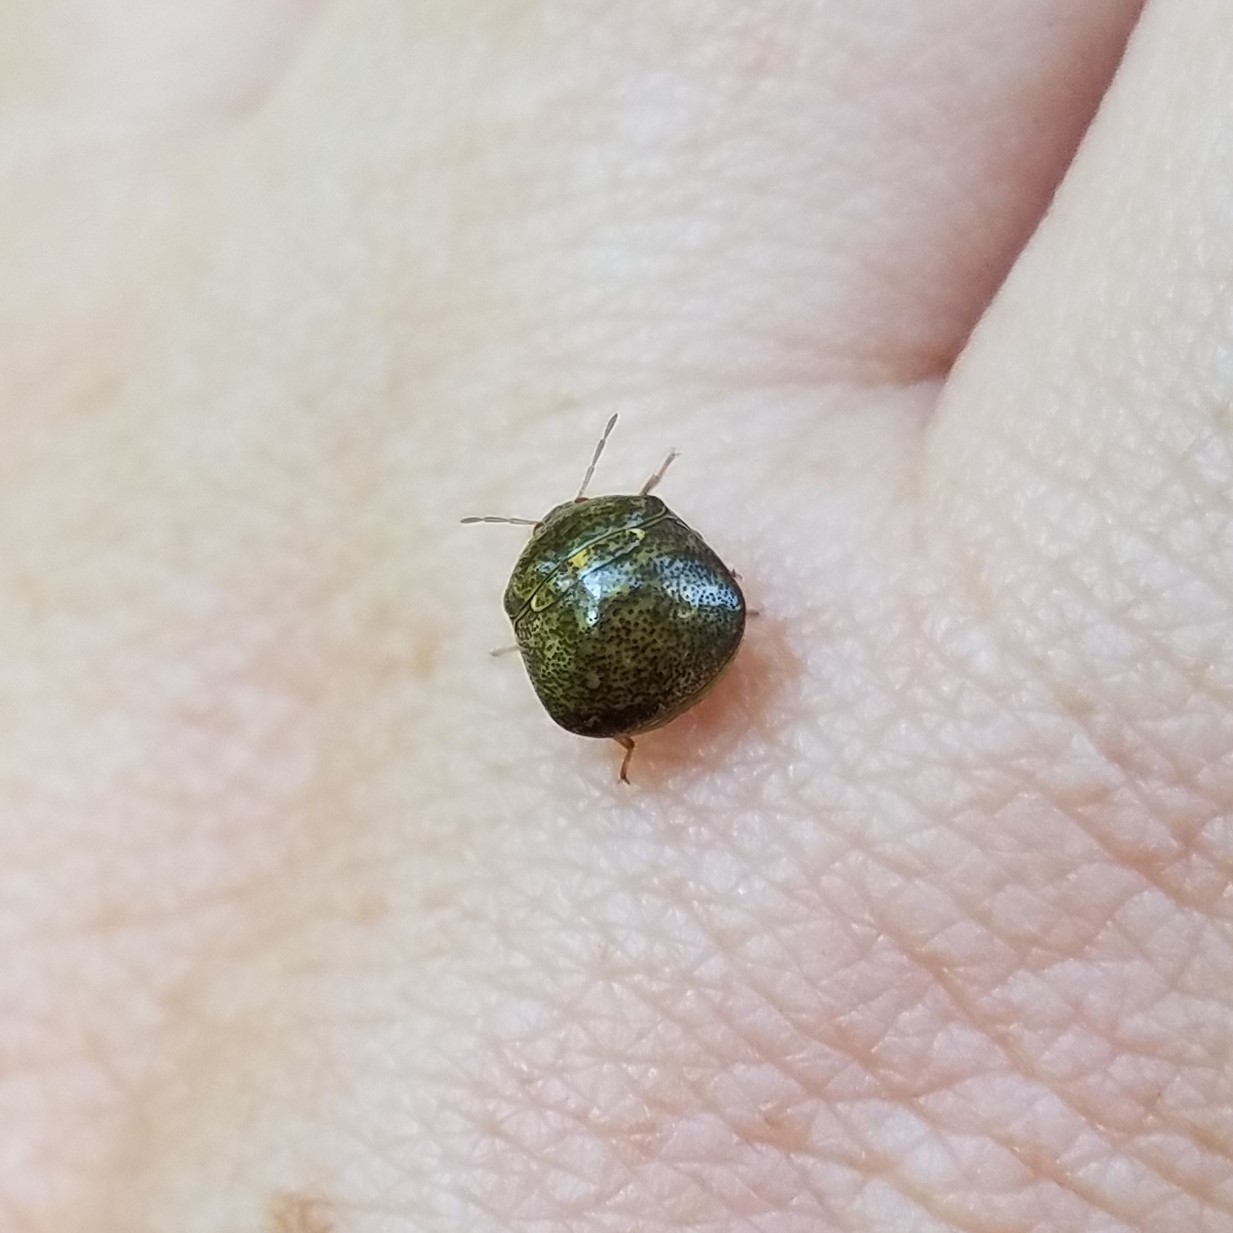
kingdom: Animalia
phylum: Arthropoda
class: Insecta
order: Hemiptera
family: Plataspidae
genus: Megacopta
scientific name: Megacopta cribraria
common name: Bean plataspid
